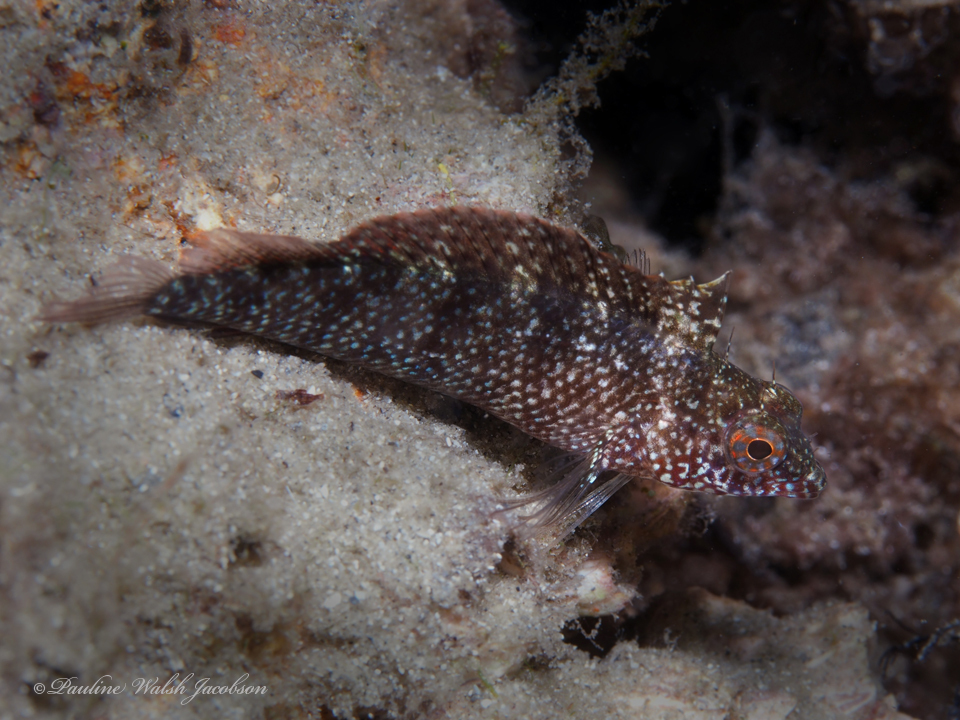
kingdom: Animalia
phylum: Chordata
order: Perciformes
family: Labrisomidae
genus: Malacoctenus
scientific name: Malacoctenus macropus
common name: Rosy blenny
